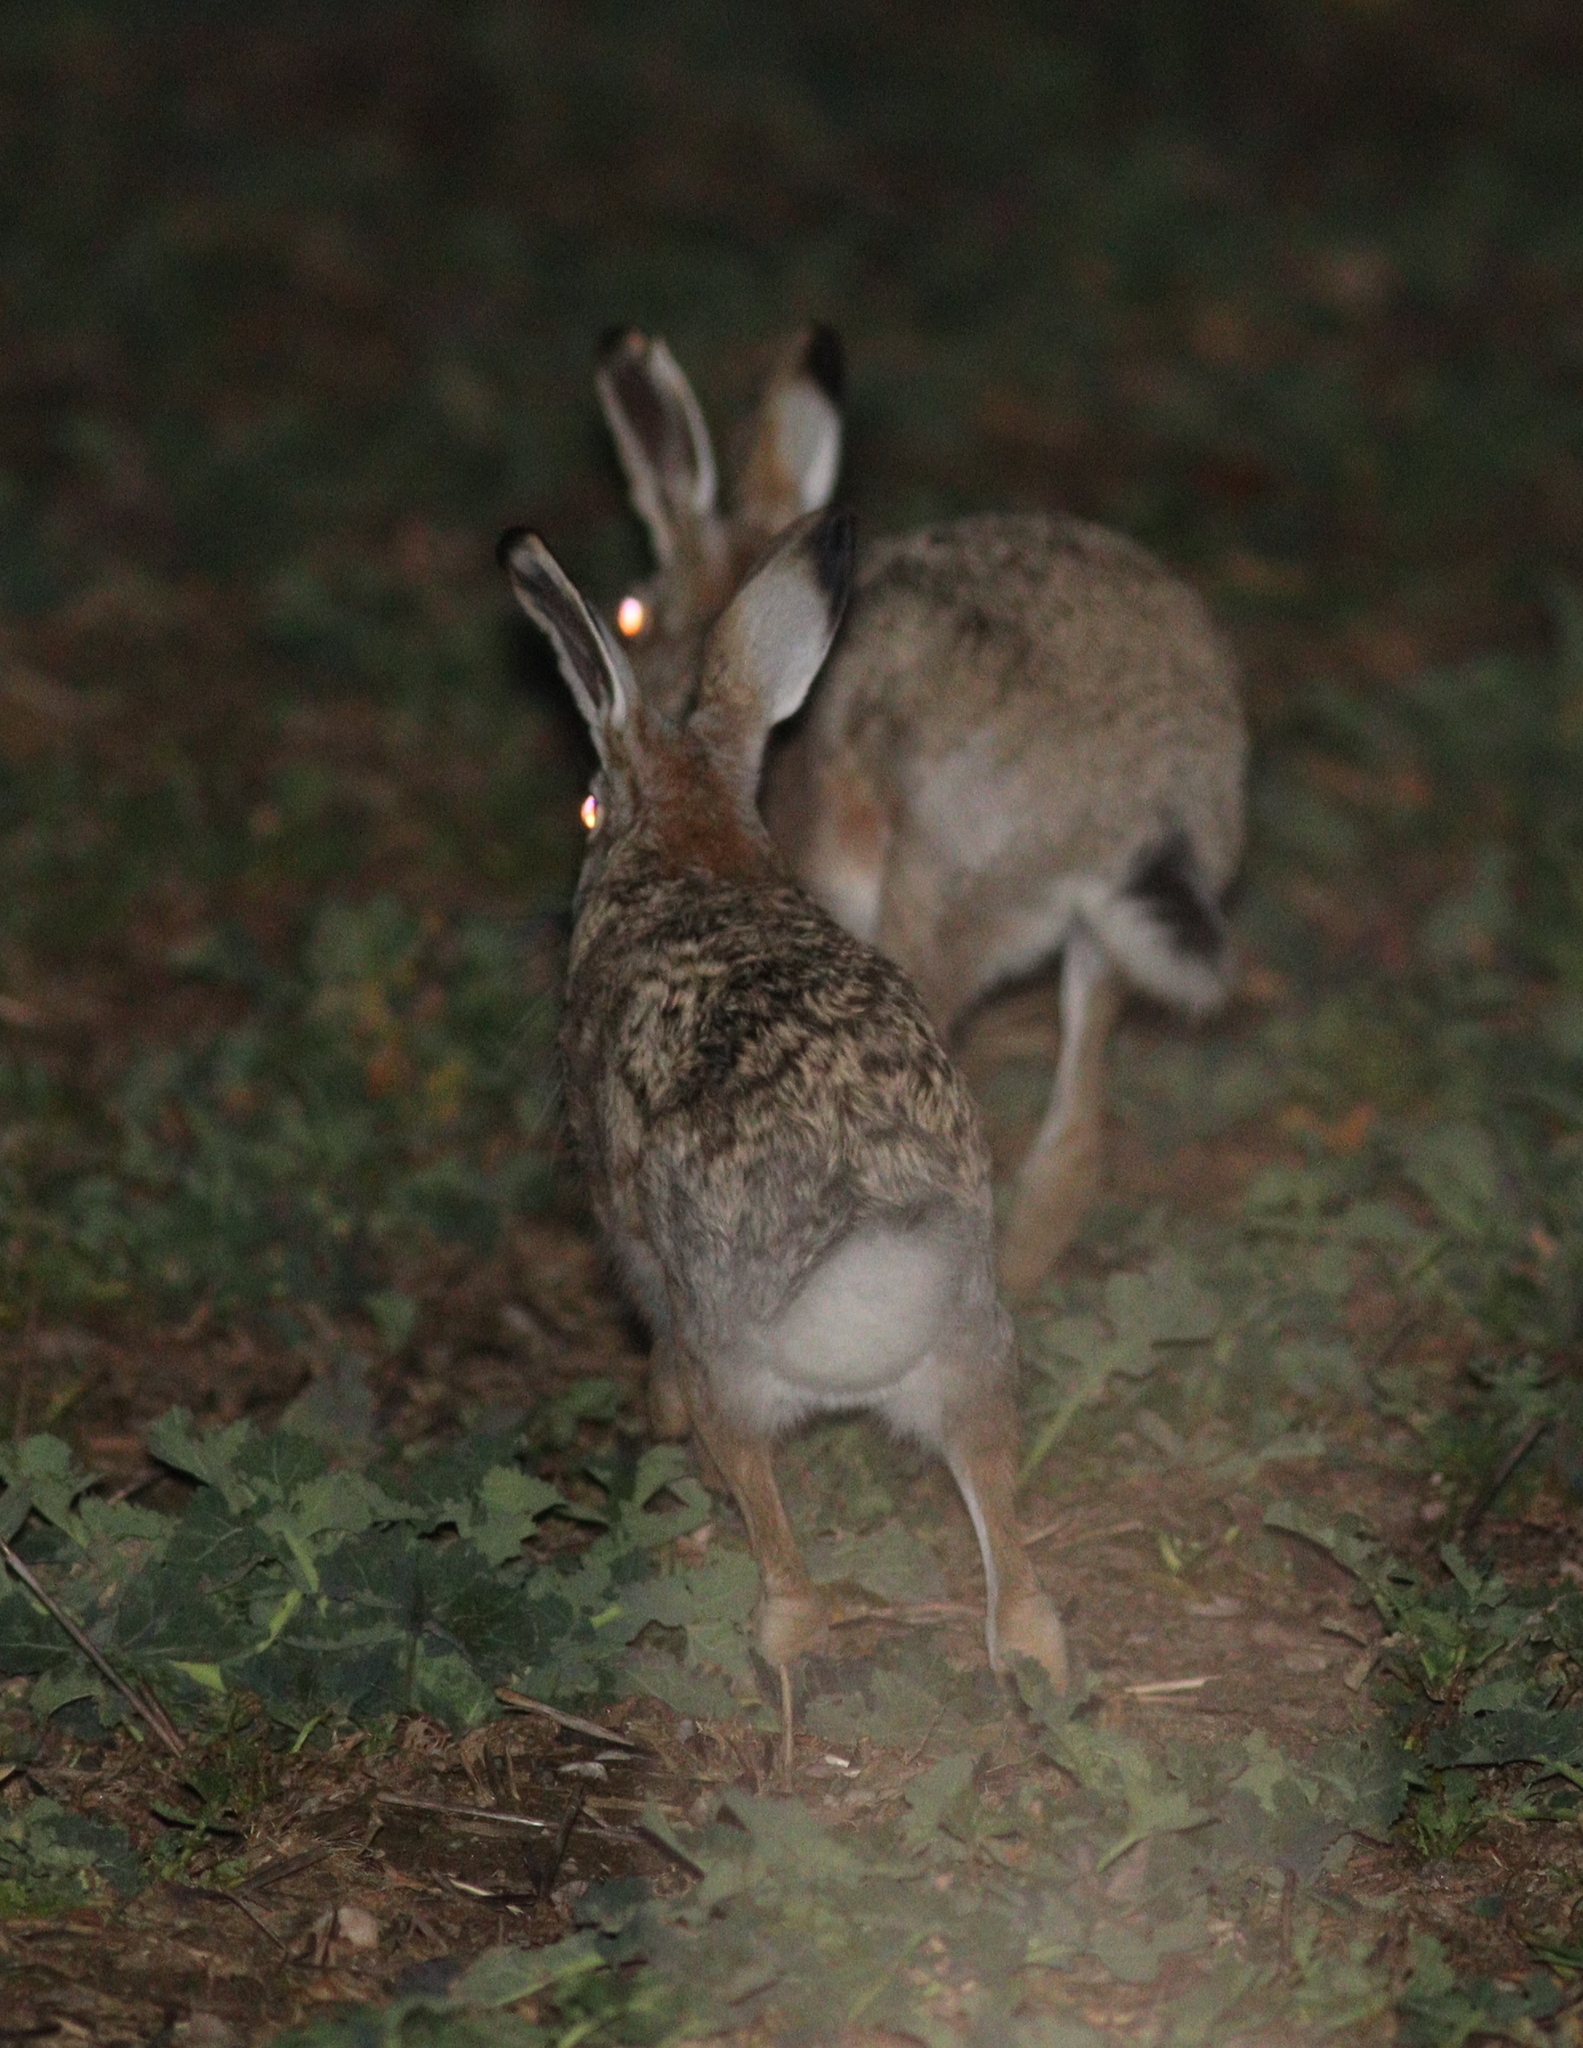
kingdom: Animalia
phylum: Chordata
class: Mammalia
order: Lagomorpha
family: Leporidae
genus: Lepus
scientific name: Lepus europaeus
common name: European hare
